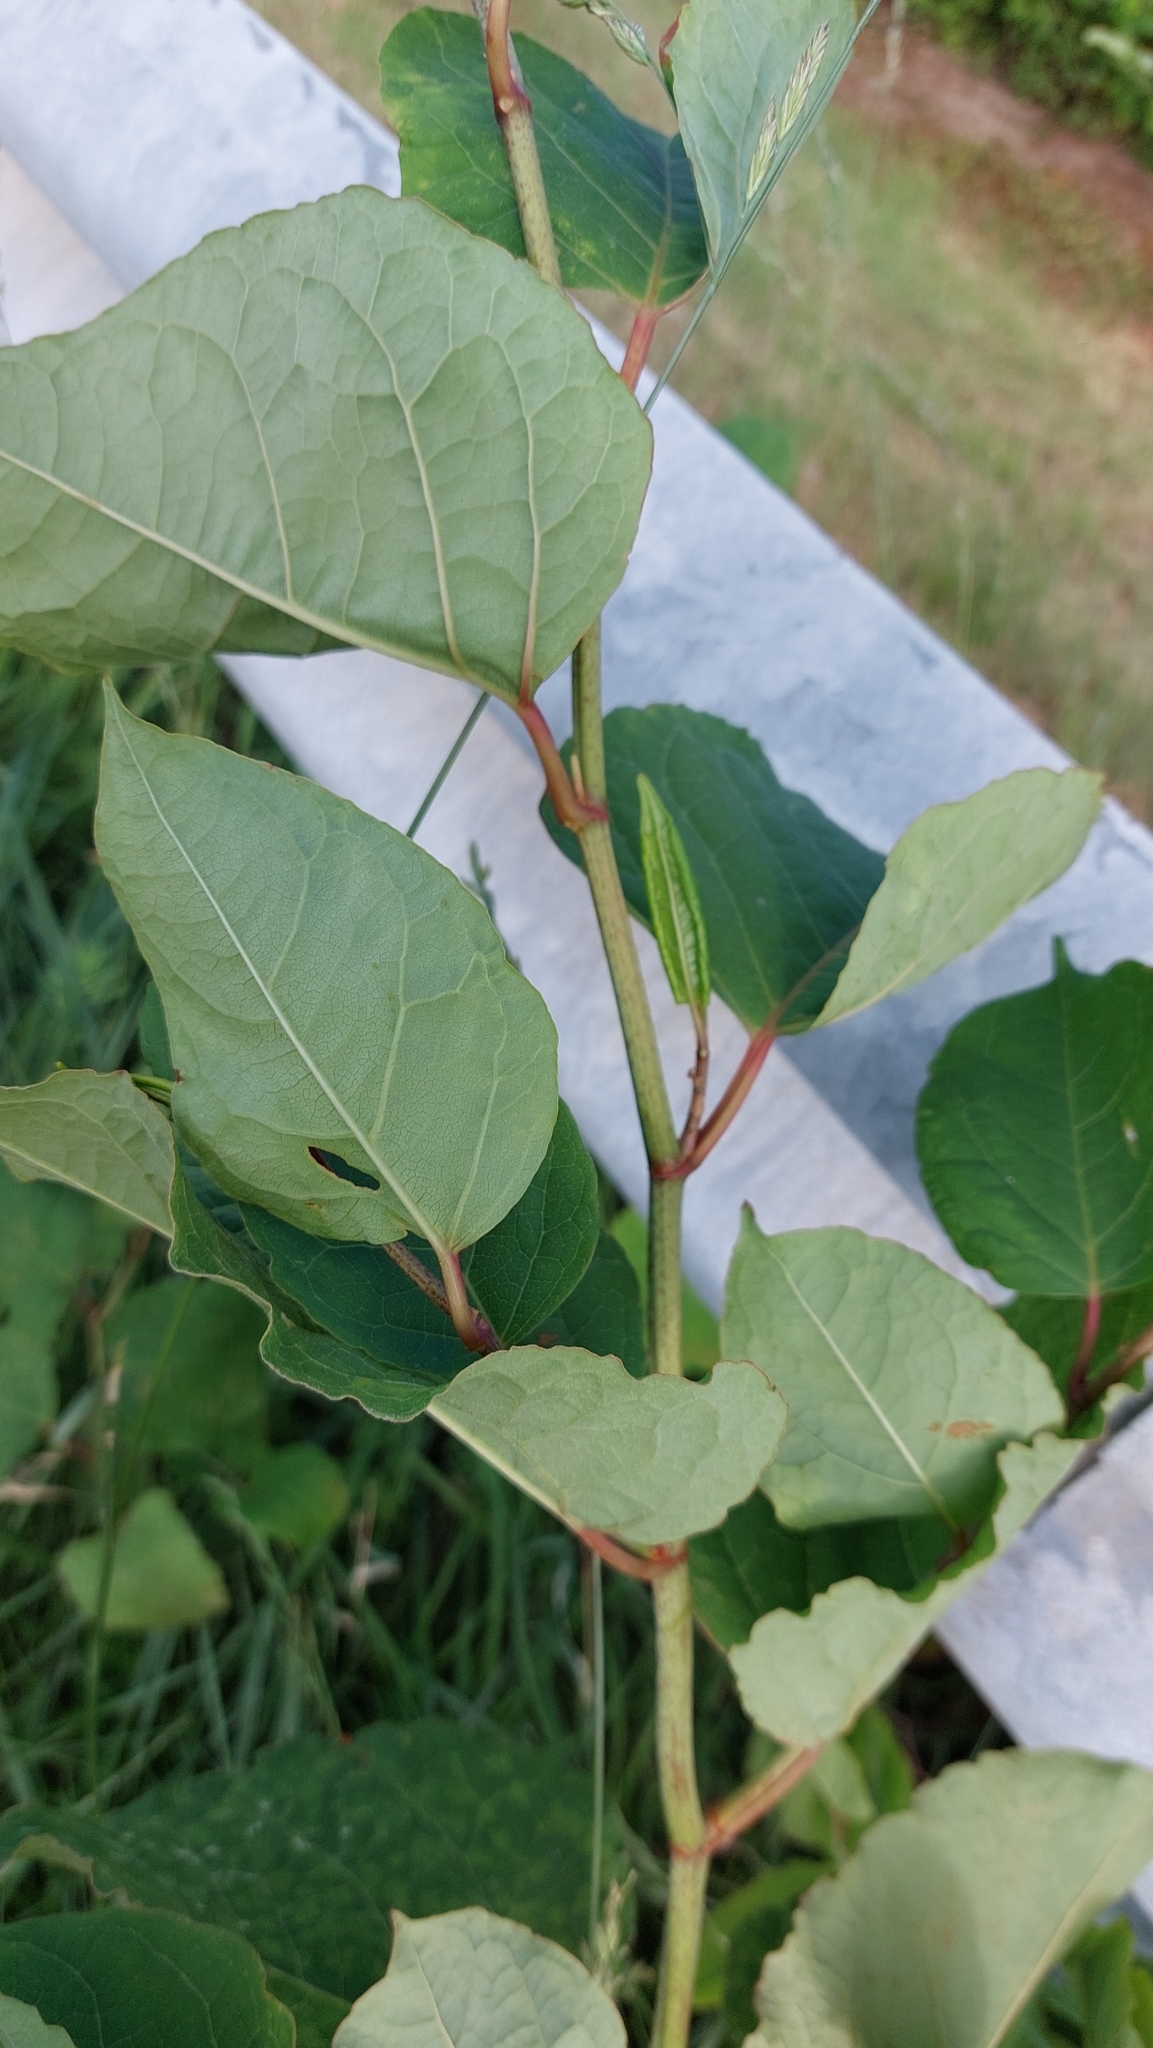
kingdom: Plantae
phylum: Tracheophyta
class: Magnoliopsida
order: Caryophyllales
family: Polygonaceae
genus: Reynoutria
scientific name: Reynoutria japonica
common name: Japanese knotweed
